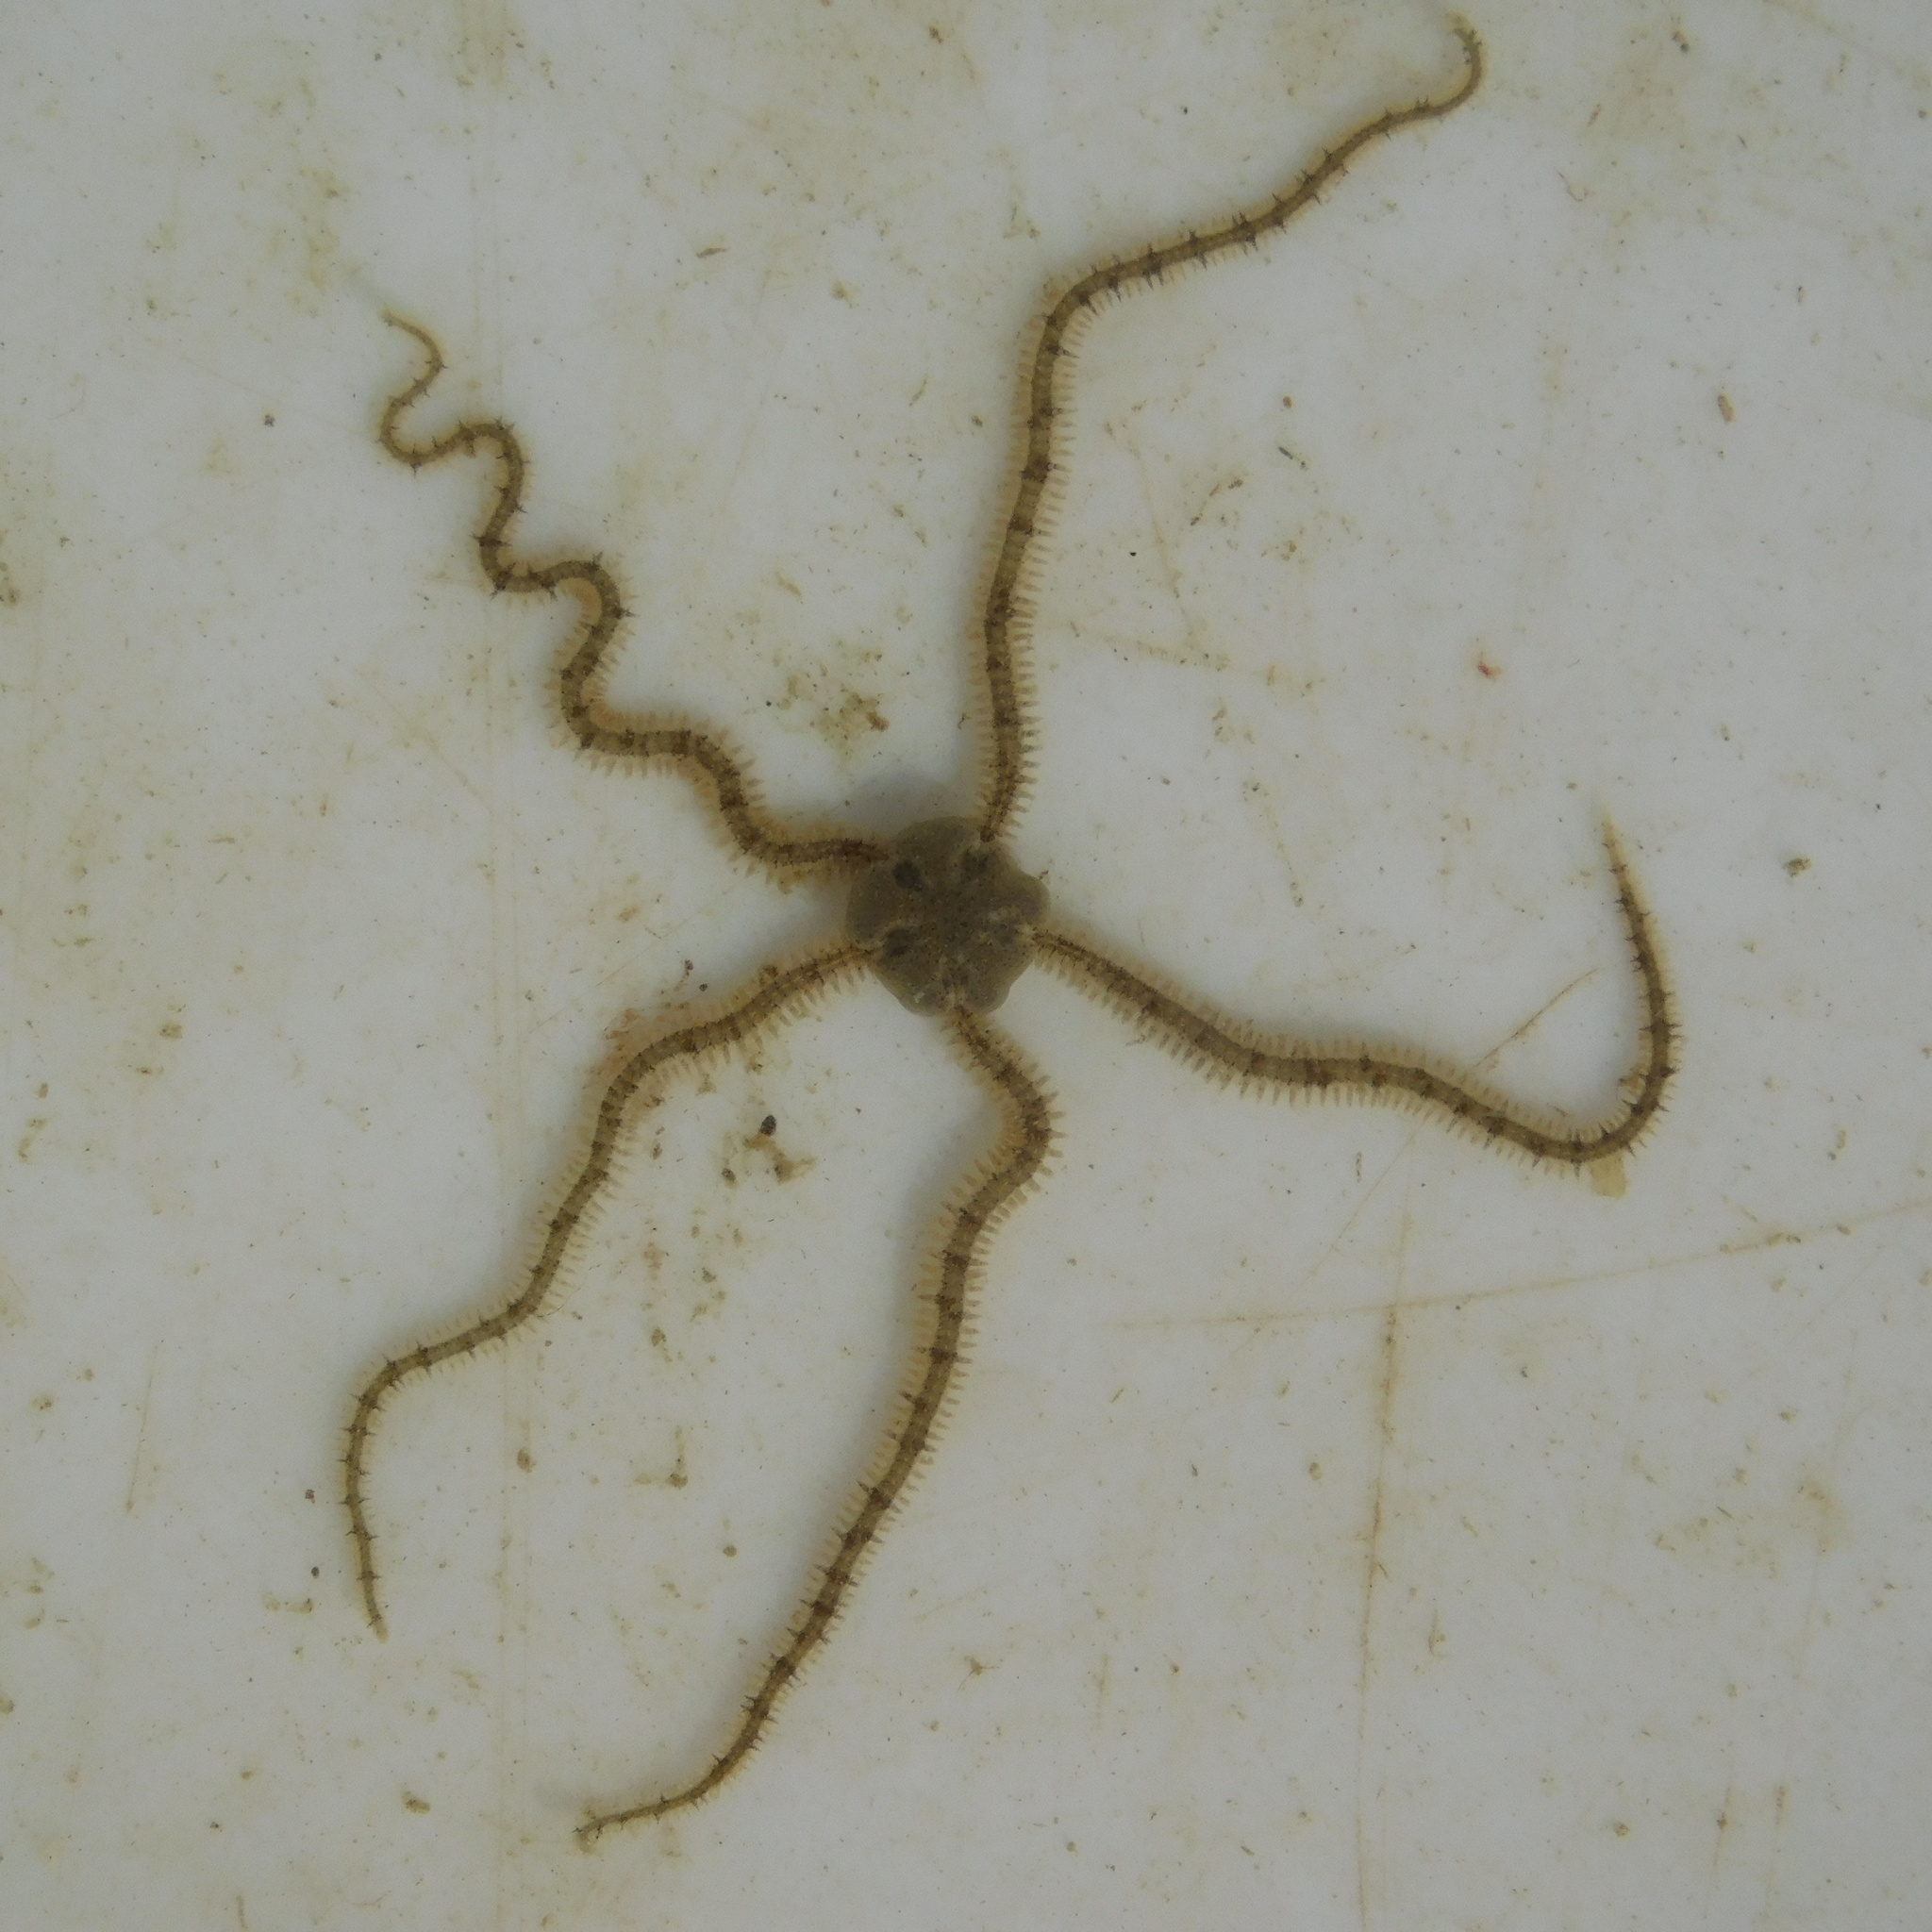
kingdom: Animalia
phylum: Echinodermata
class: Ophiuroidea
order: Amphilepidida
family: Ophiactidae
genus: Ophiactis
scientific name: Ophiactis resiliens
